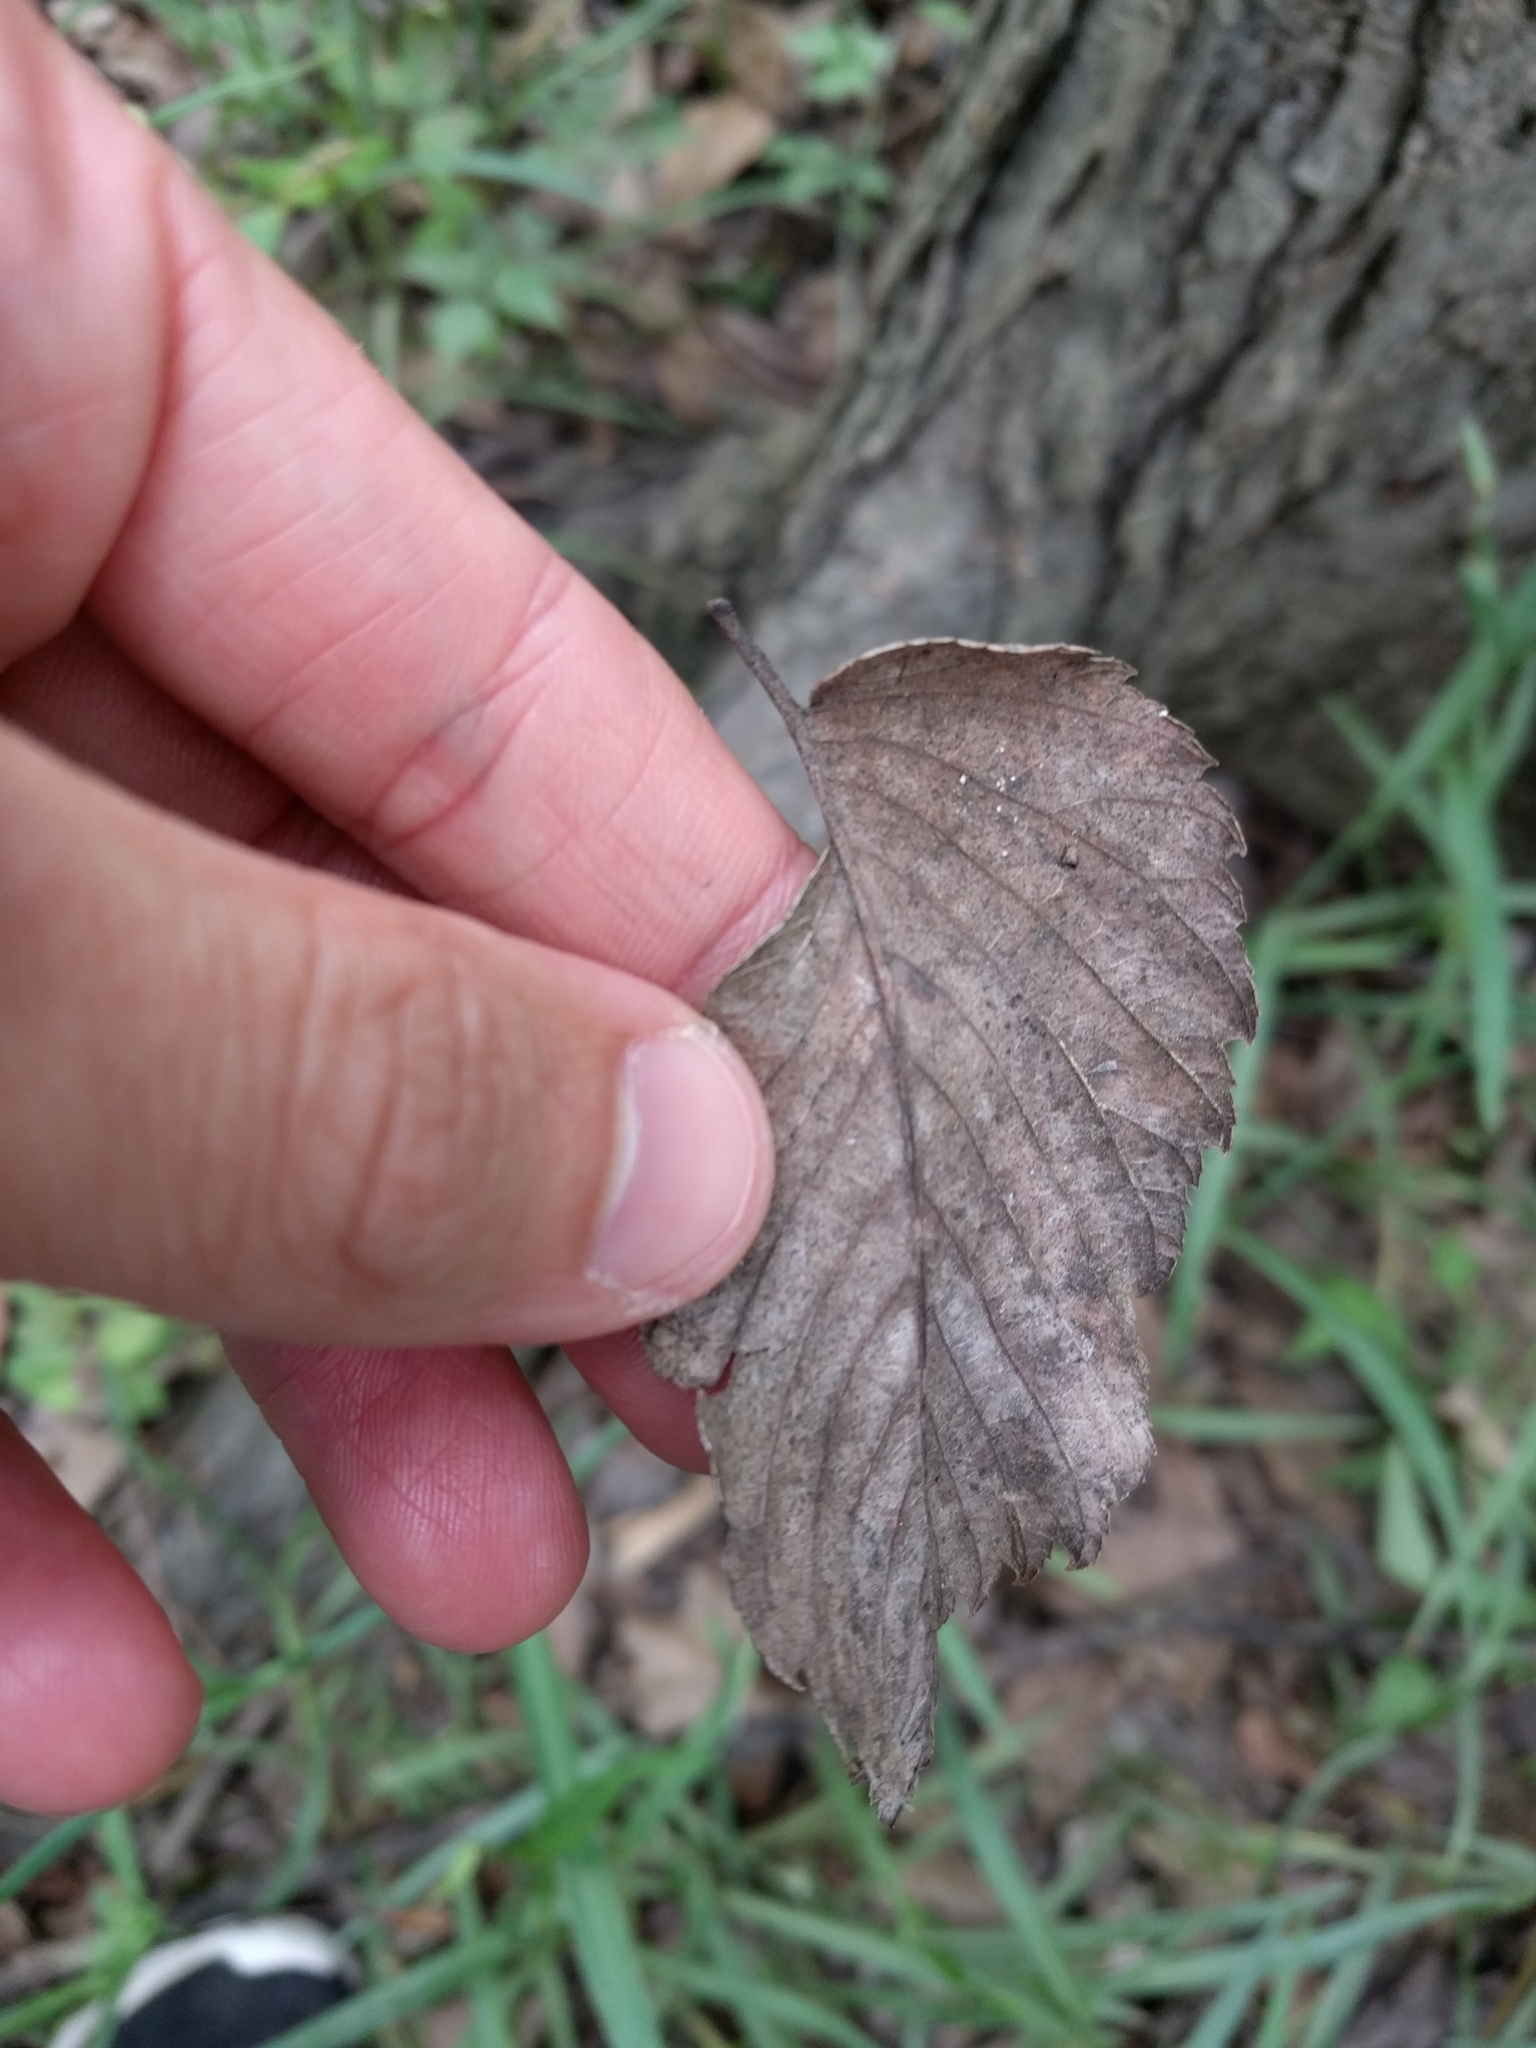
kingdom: Plantae
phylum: Tracheophyta
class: Magnoliopsida
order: Rosales
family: Ulmaceae
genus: Ulmus
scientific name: Ulmus americana
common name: American elm
